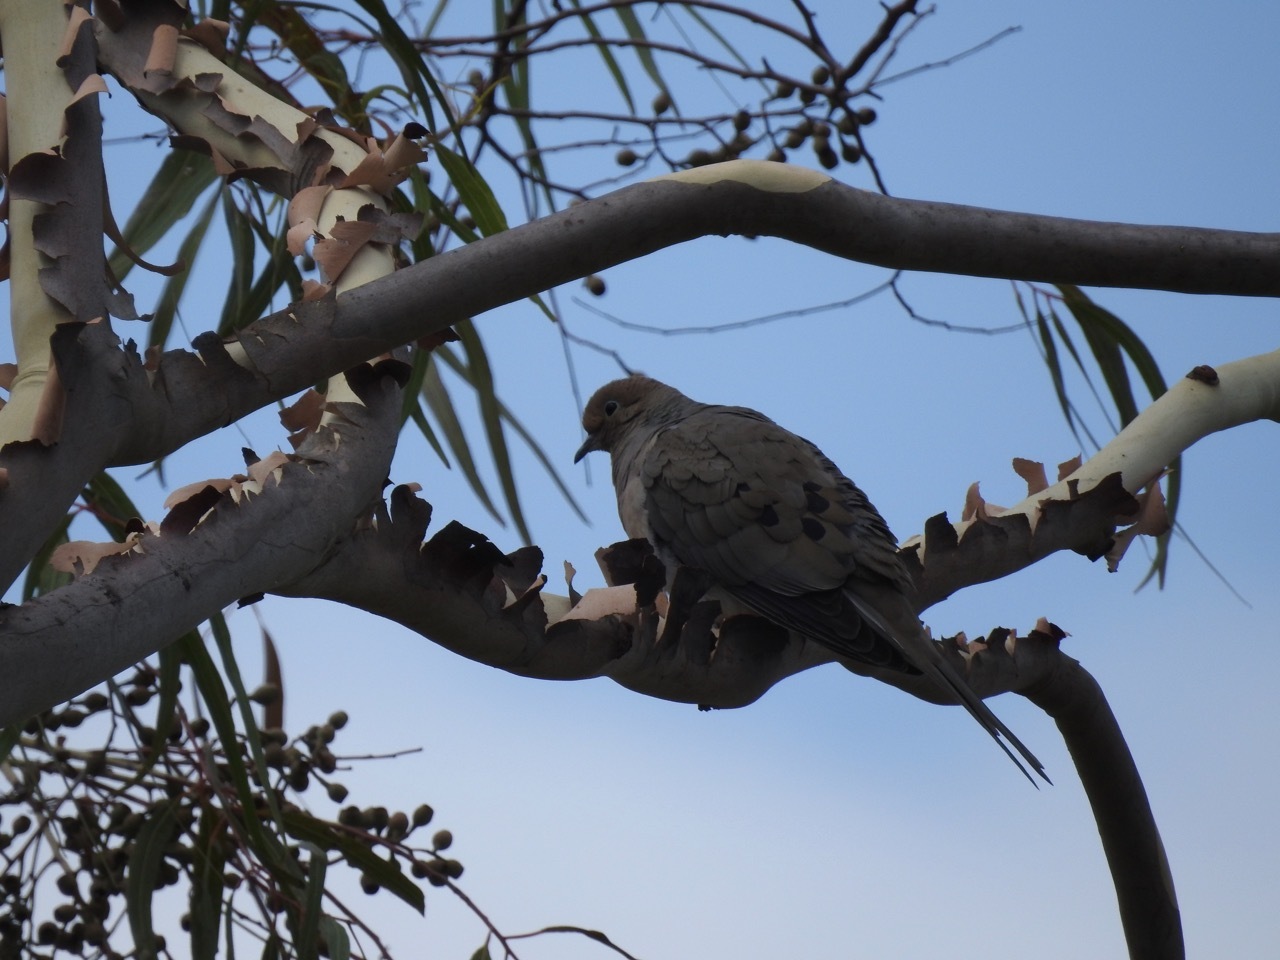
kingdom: Animalia
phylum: Chordata
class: Aves
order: Columbiformes
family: Columbidae
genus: Zenaida
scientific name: Zenaida macroura
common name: Mourning dove
